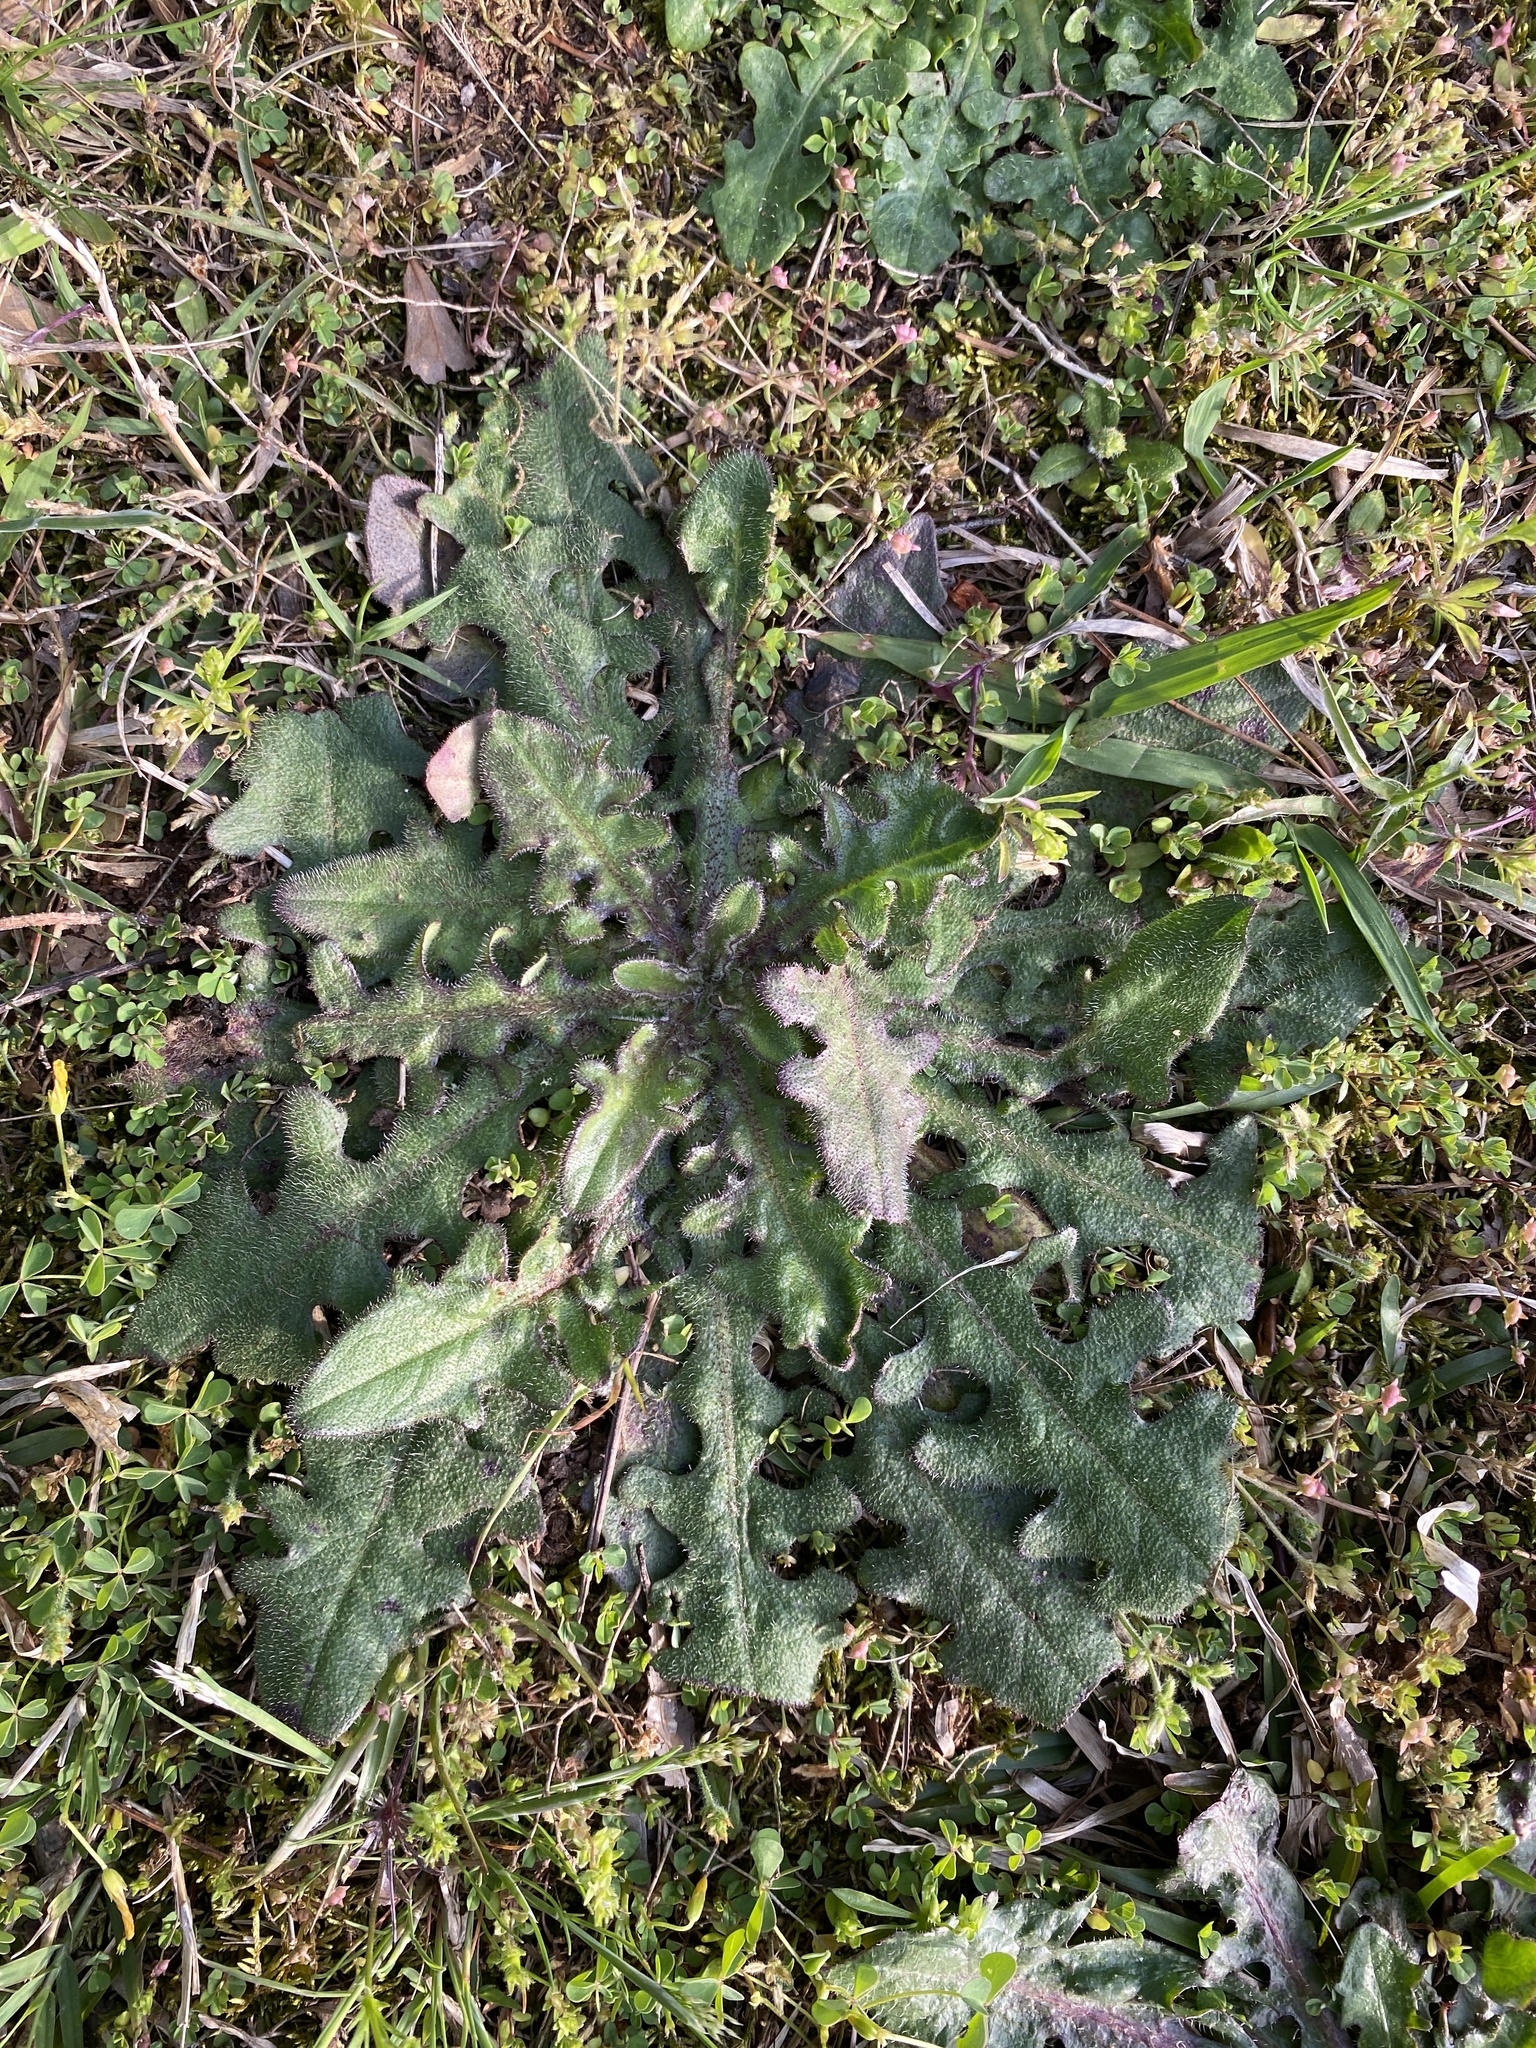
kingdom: Plantae
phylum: Tracheophyta
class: Magnoliopsida
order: Asterales
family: Asteraceae
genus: Hypochaeris
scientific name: Hypochaeris radicata
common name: Flatweed
